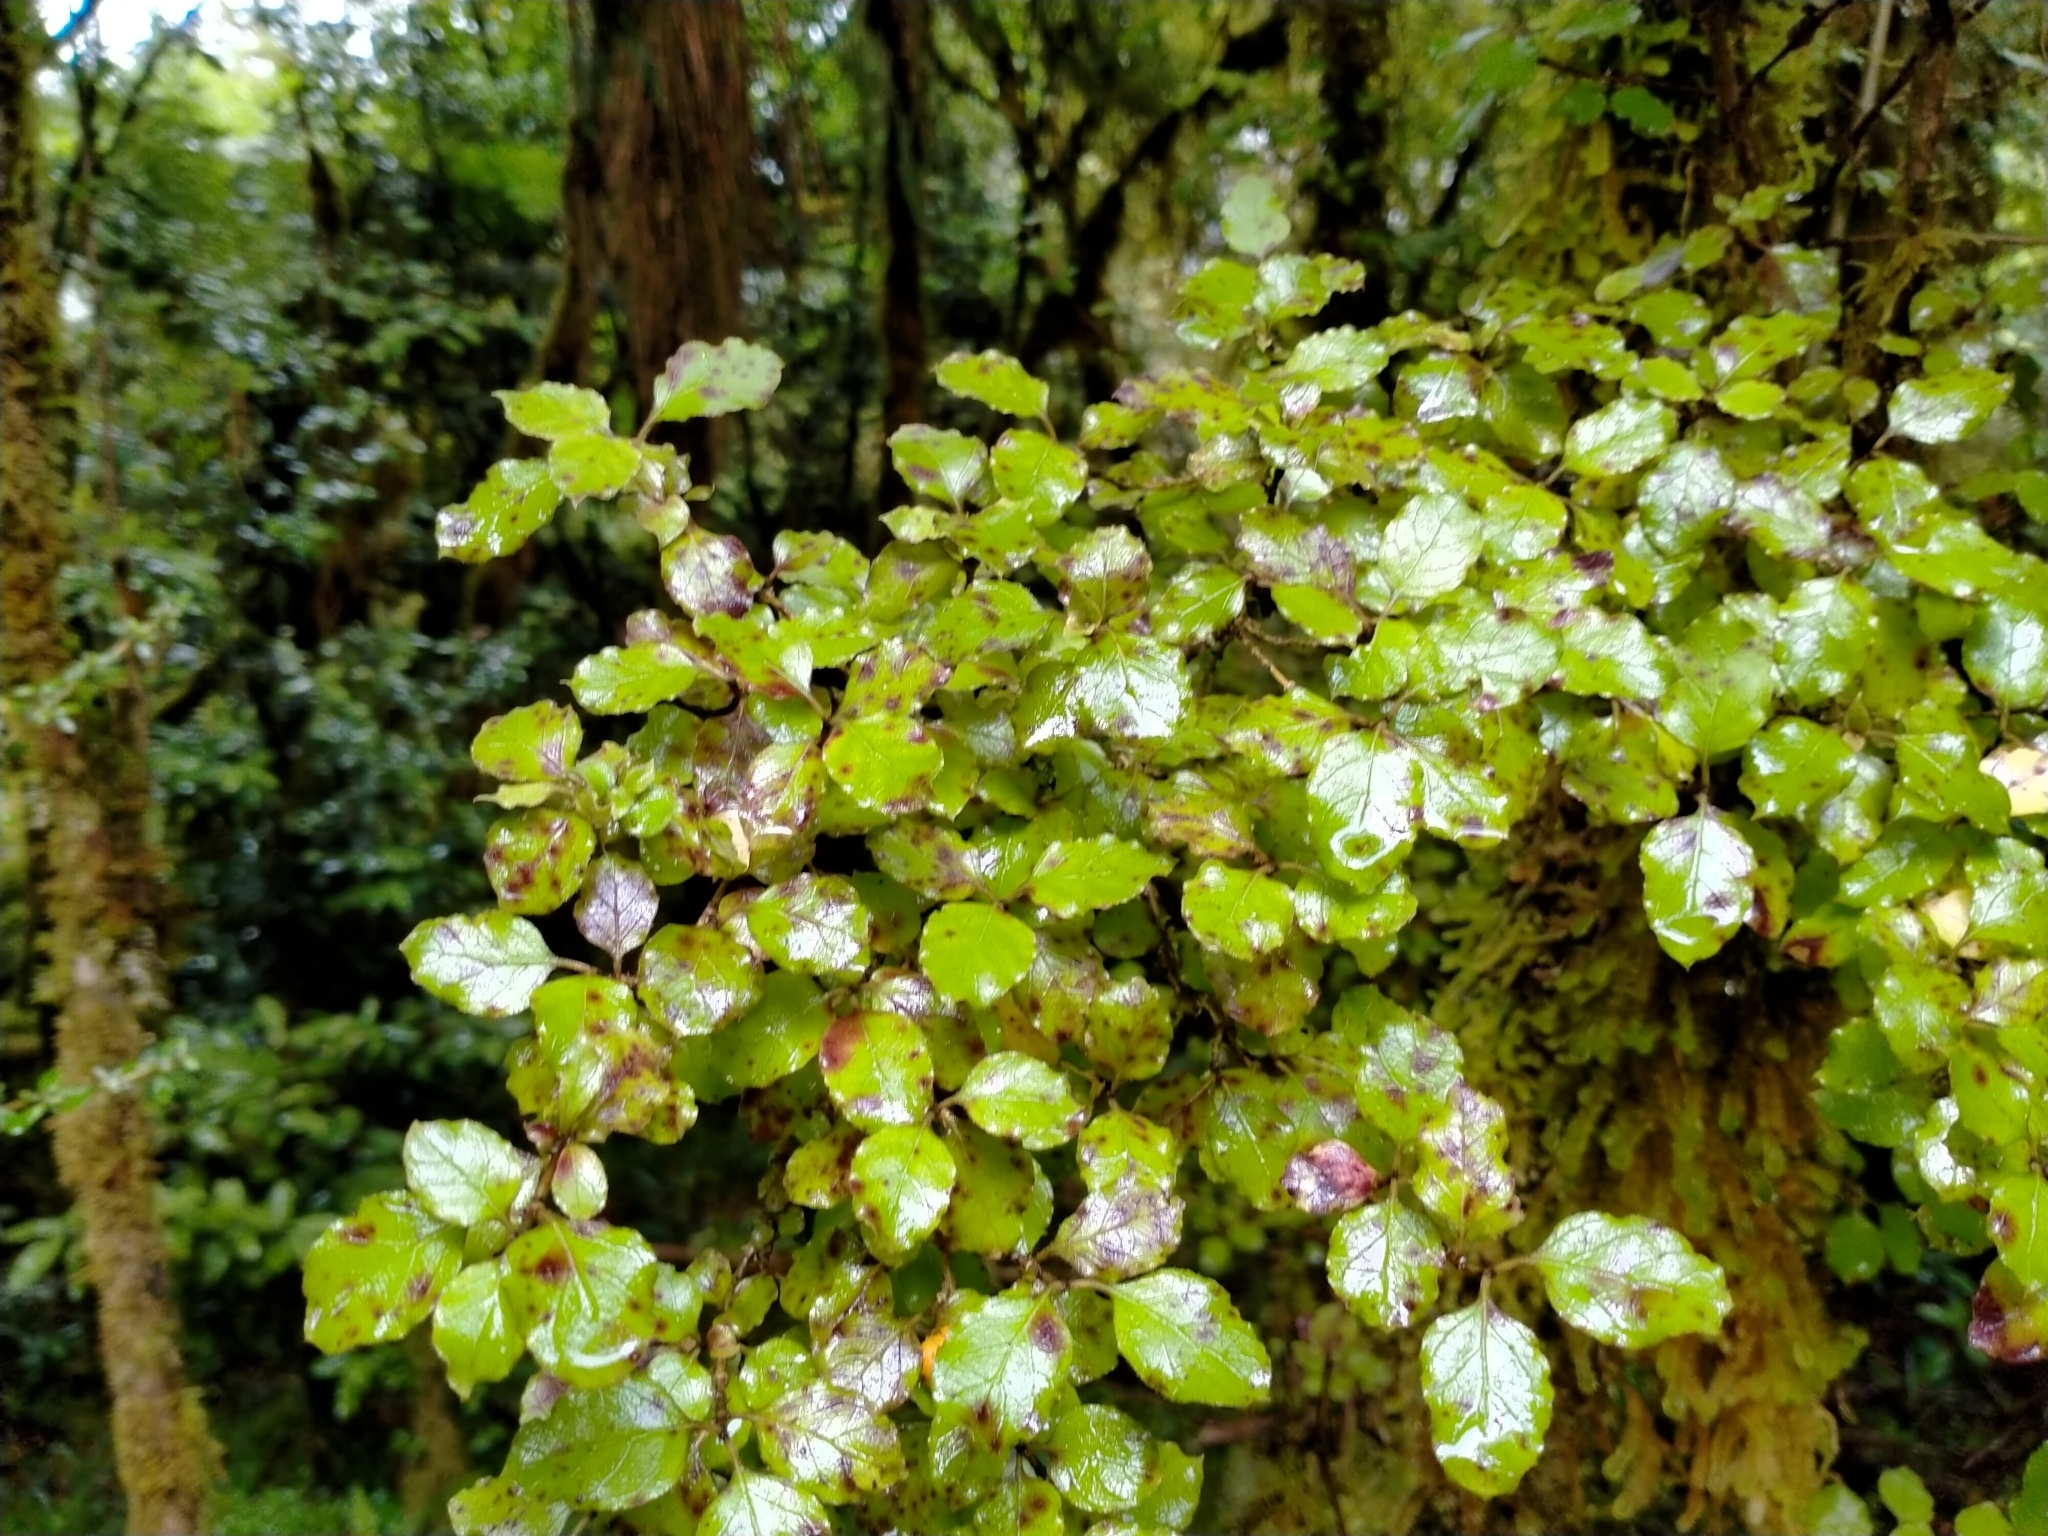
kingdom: Plantae
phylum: Tracheophyta
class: Magnoliopsida
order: Gentianales
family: Rubiaceae
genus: Coprosma
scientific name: Coprosma rotundifolia
